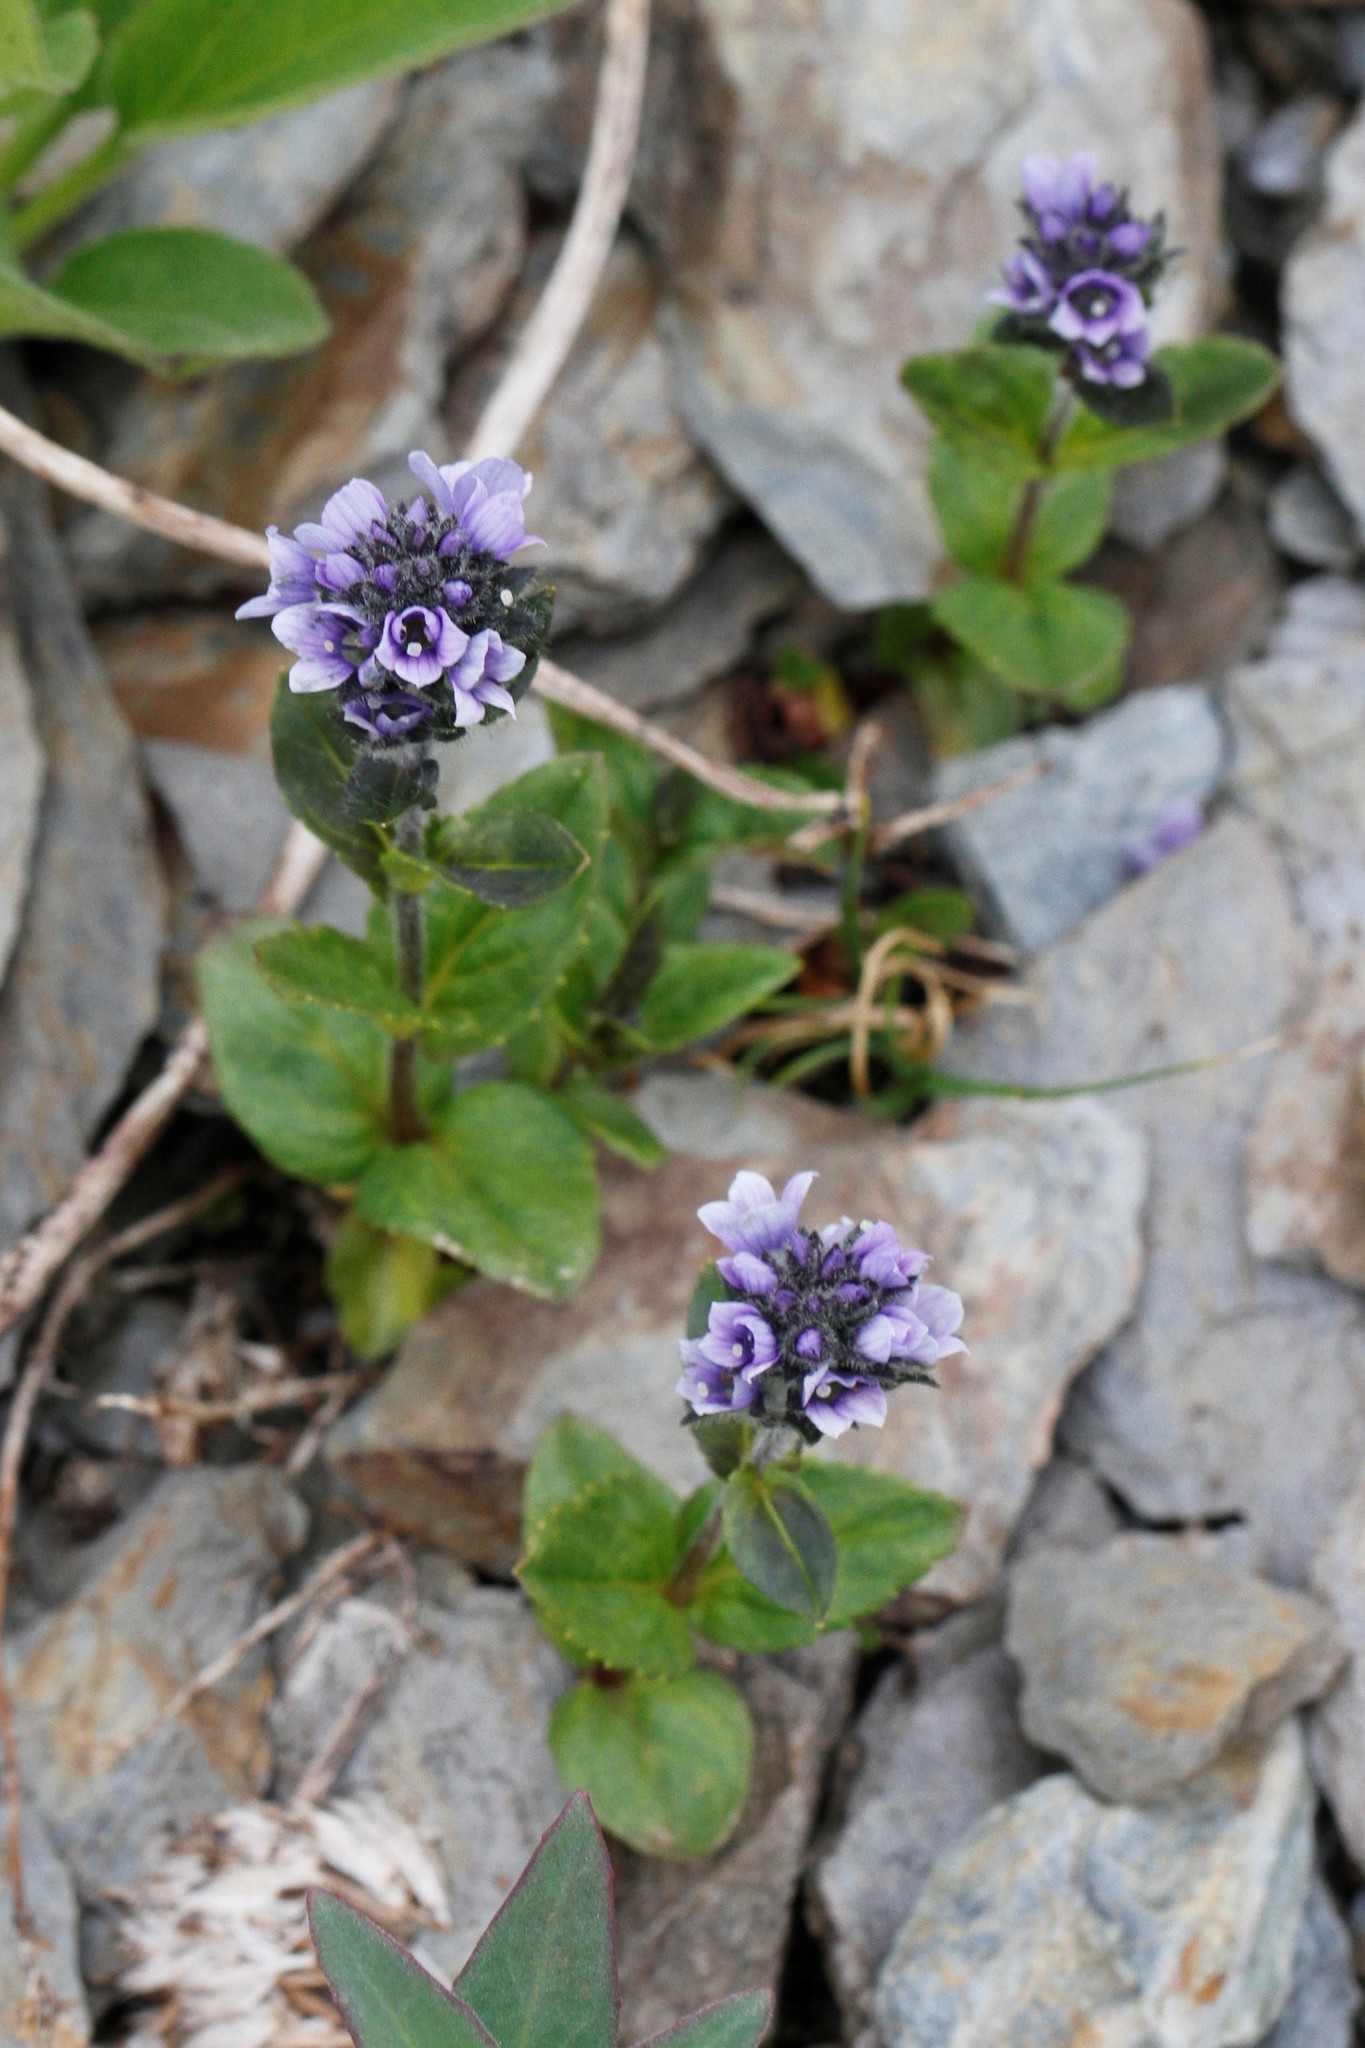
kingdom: Plantae
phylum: Tracheophyta
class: Magnoliopsida
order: Lamiales
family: Plantaginaceae
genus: Veronica
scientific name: Veronica wormskjoldii
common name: American alpine speedwell
